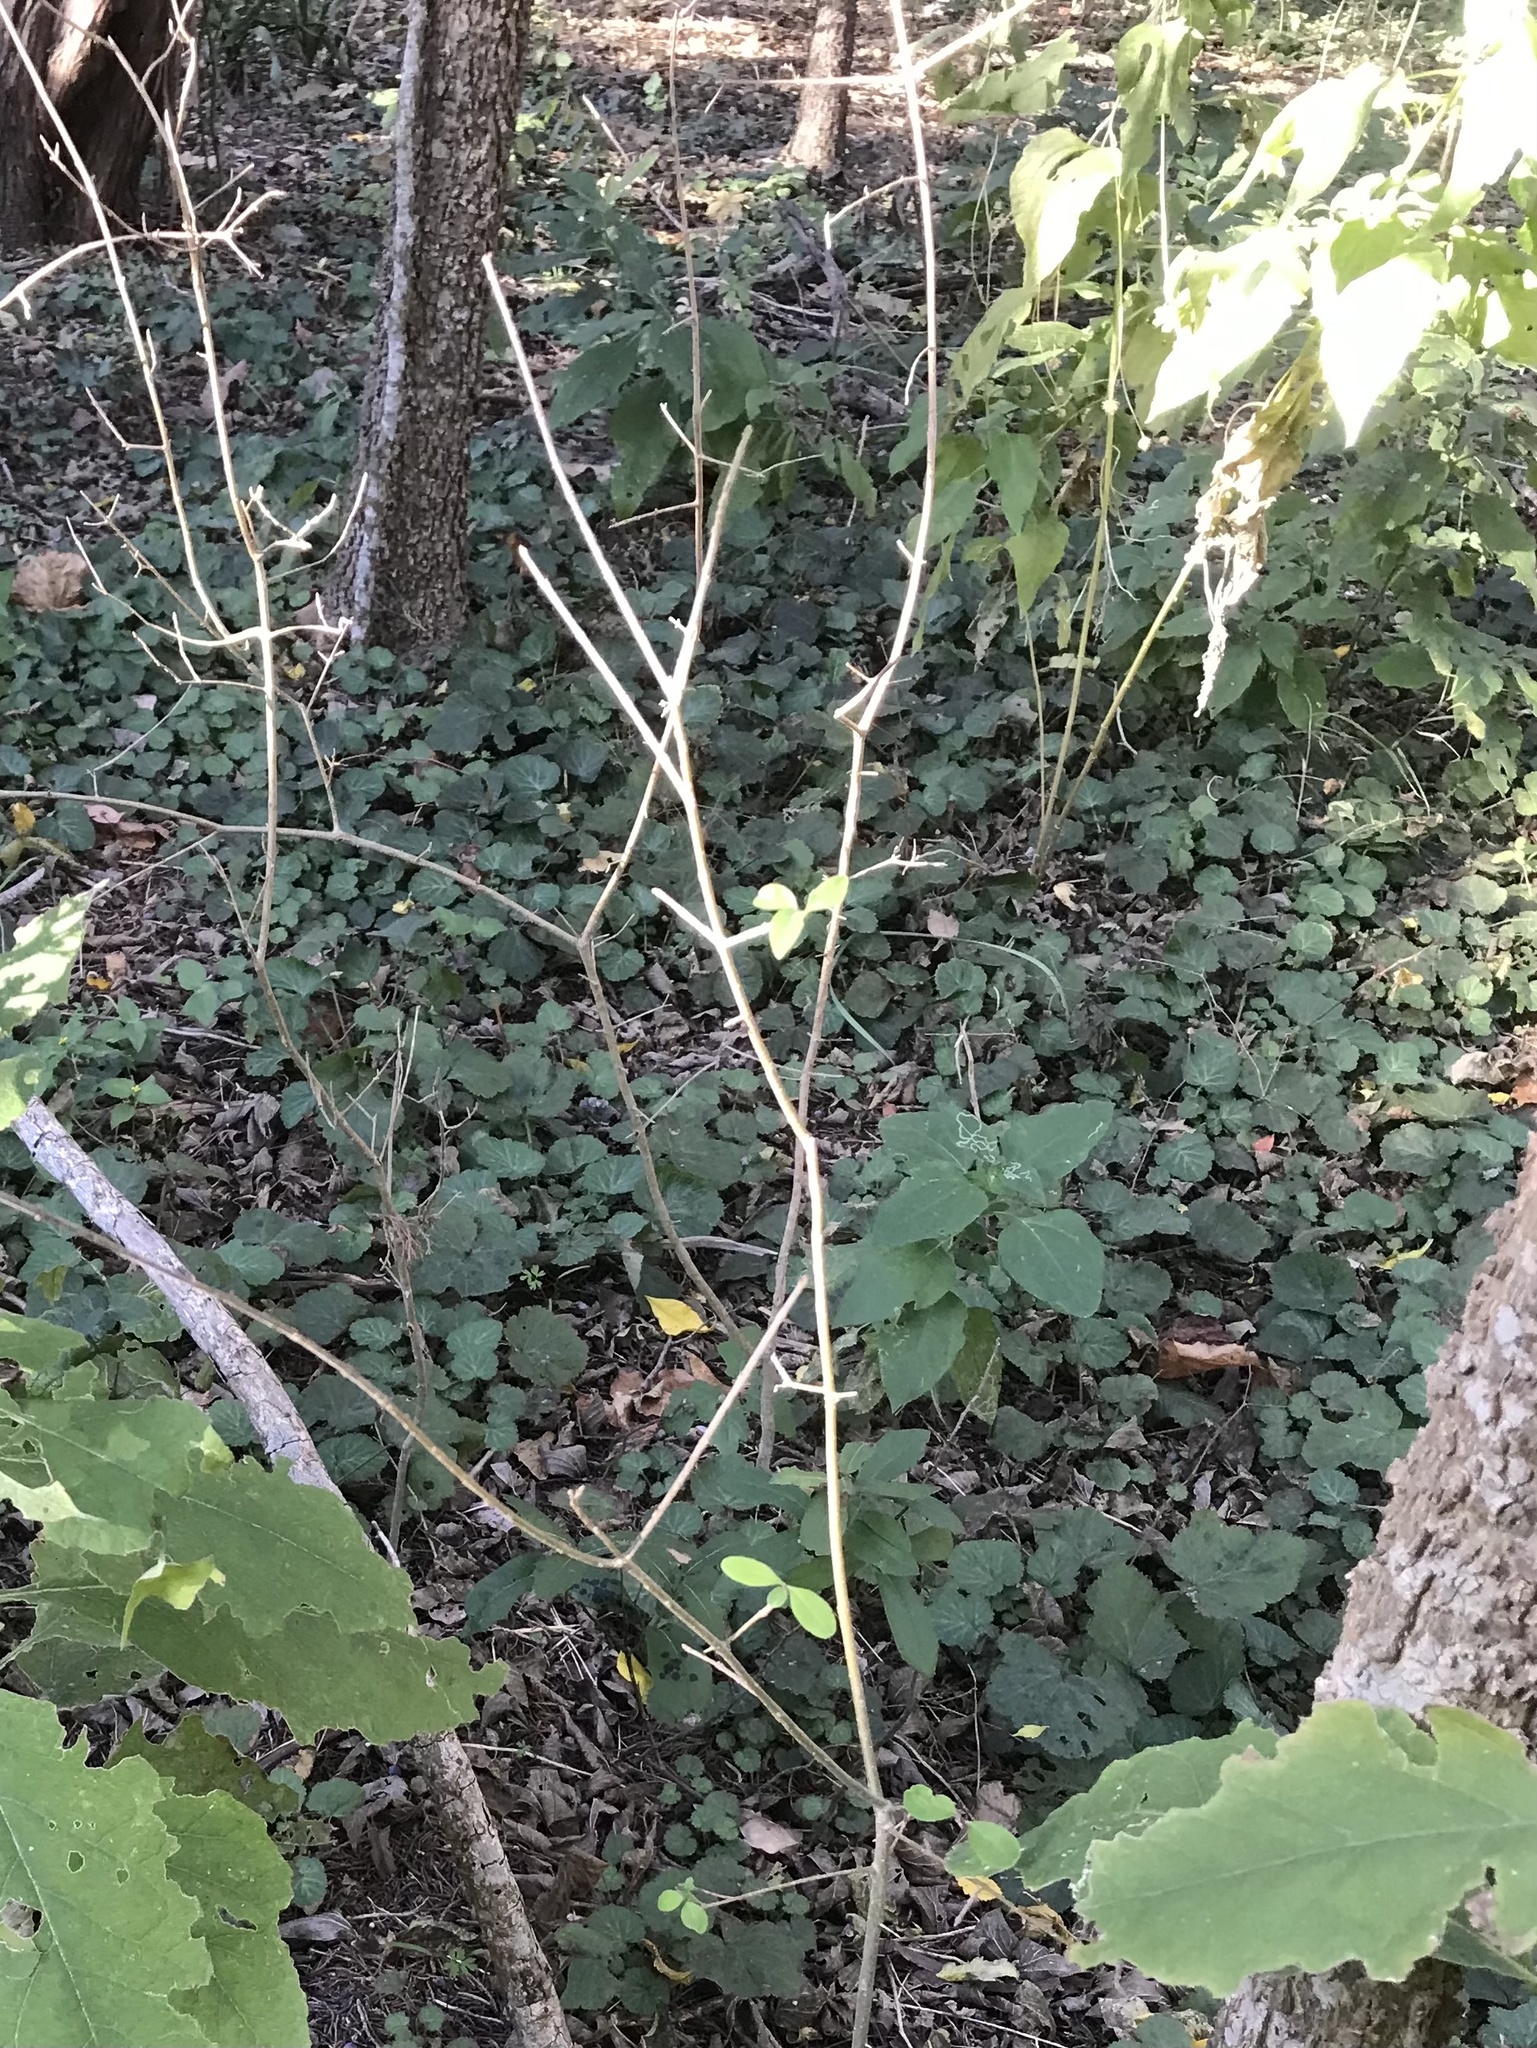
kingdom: Plantae
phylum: Tracheophyta
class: Magnoliopsida
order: Lamiales
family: Oleaceae
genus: Forestiera
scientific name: Forestiera pubescens
